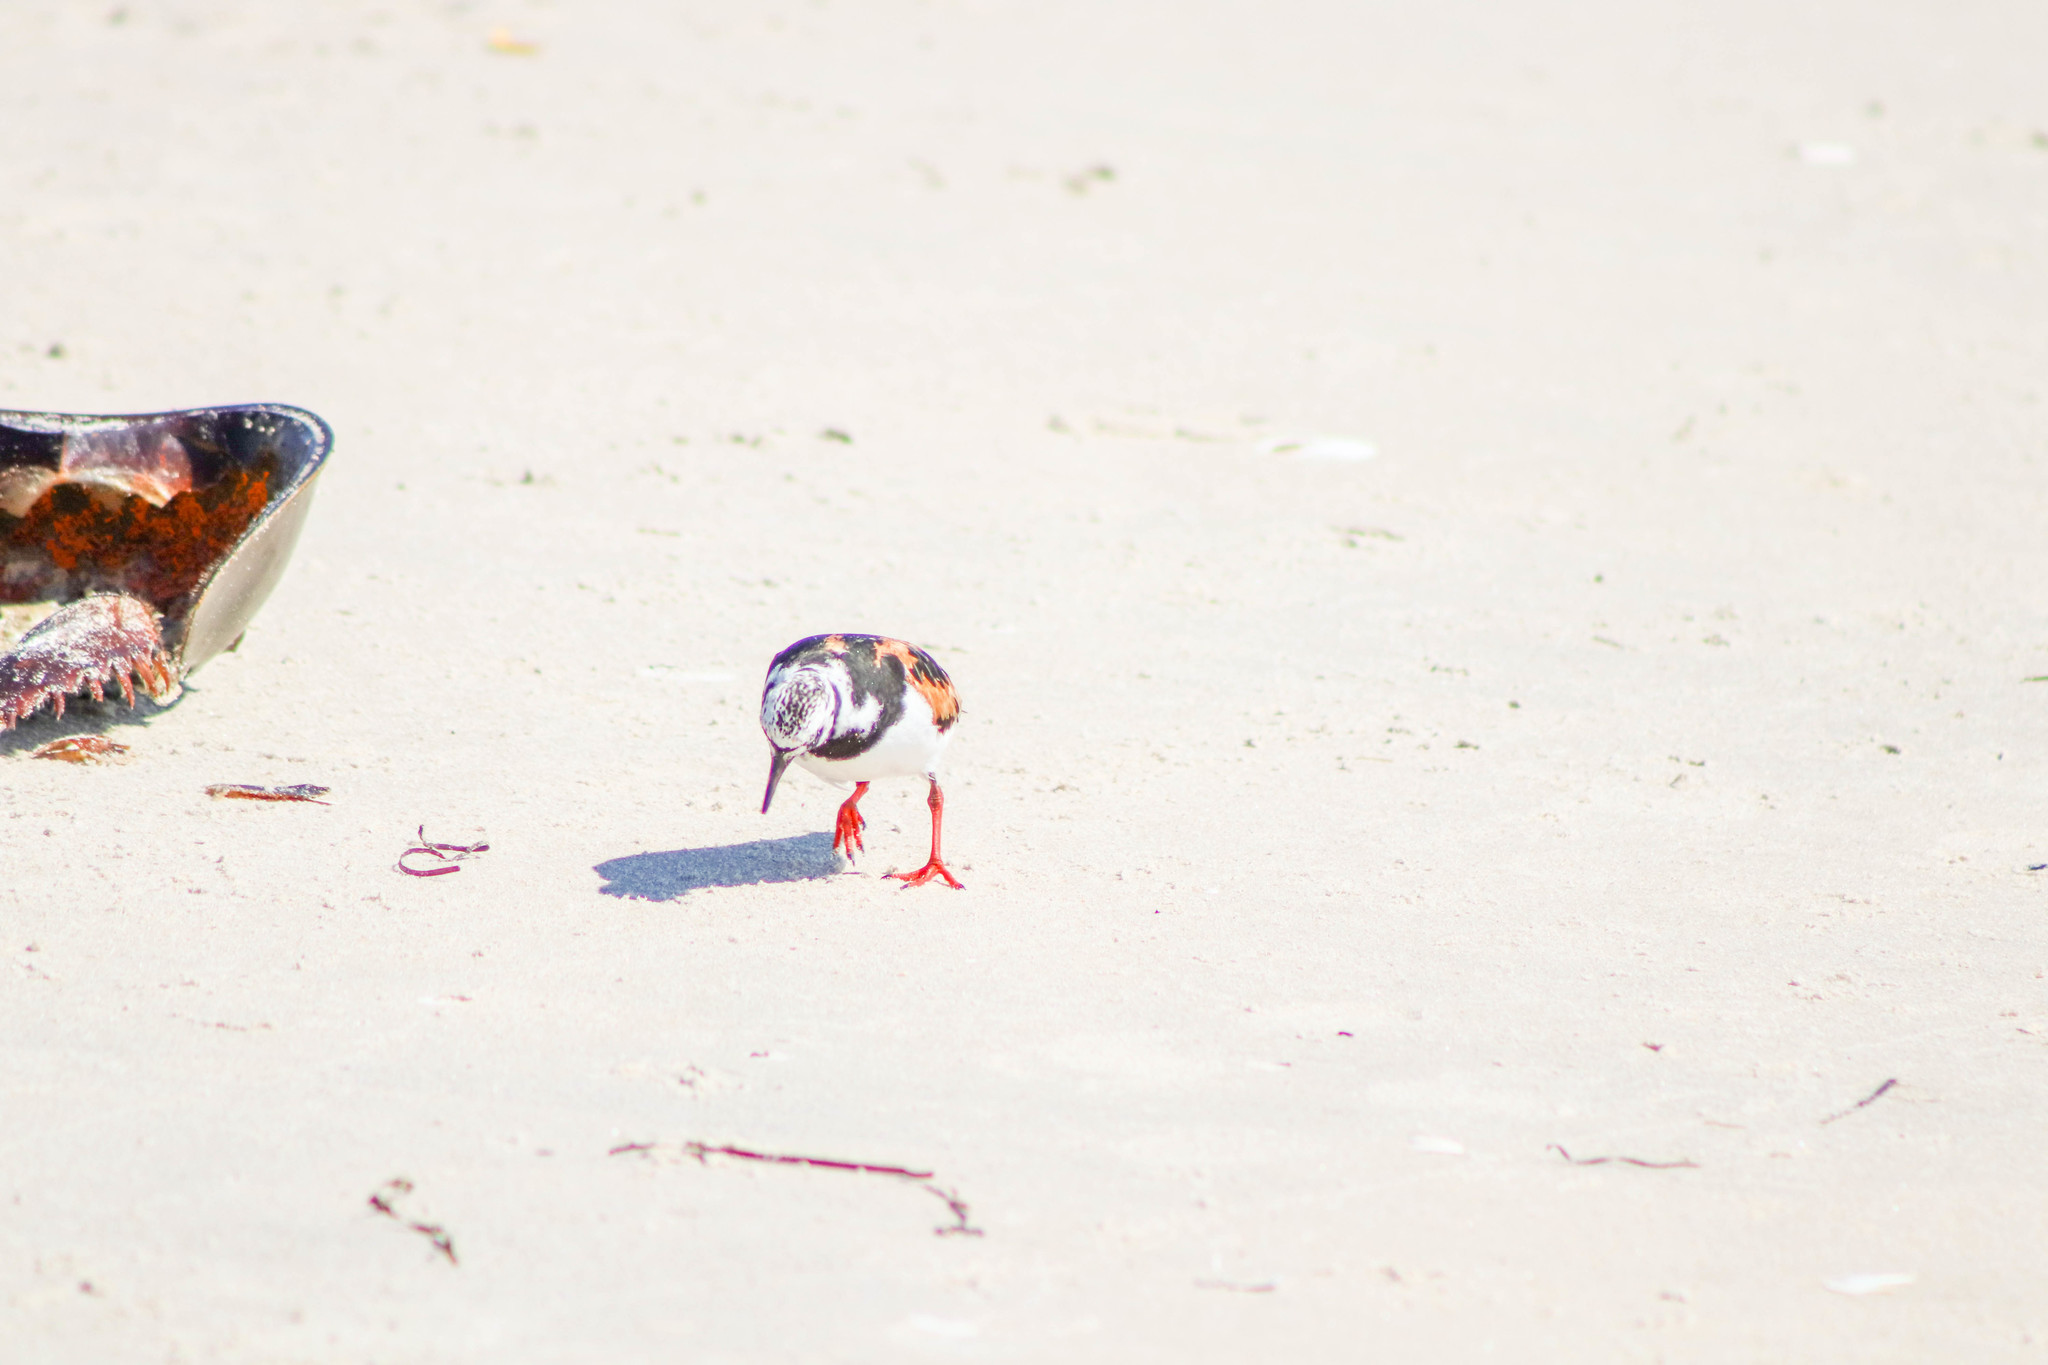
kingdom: Animalia
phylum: Chordata
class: Aves
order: Charadriiformes
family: Scolopacidae
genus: Arenaria
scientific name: Arenaria interpres
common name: Ruddy turnstone
